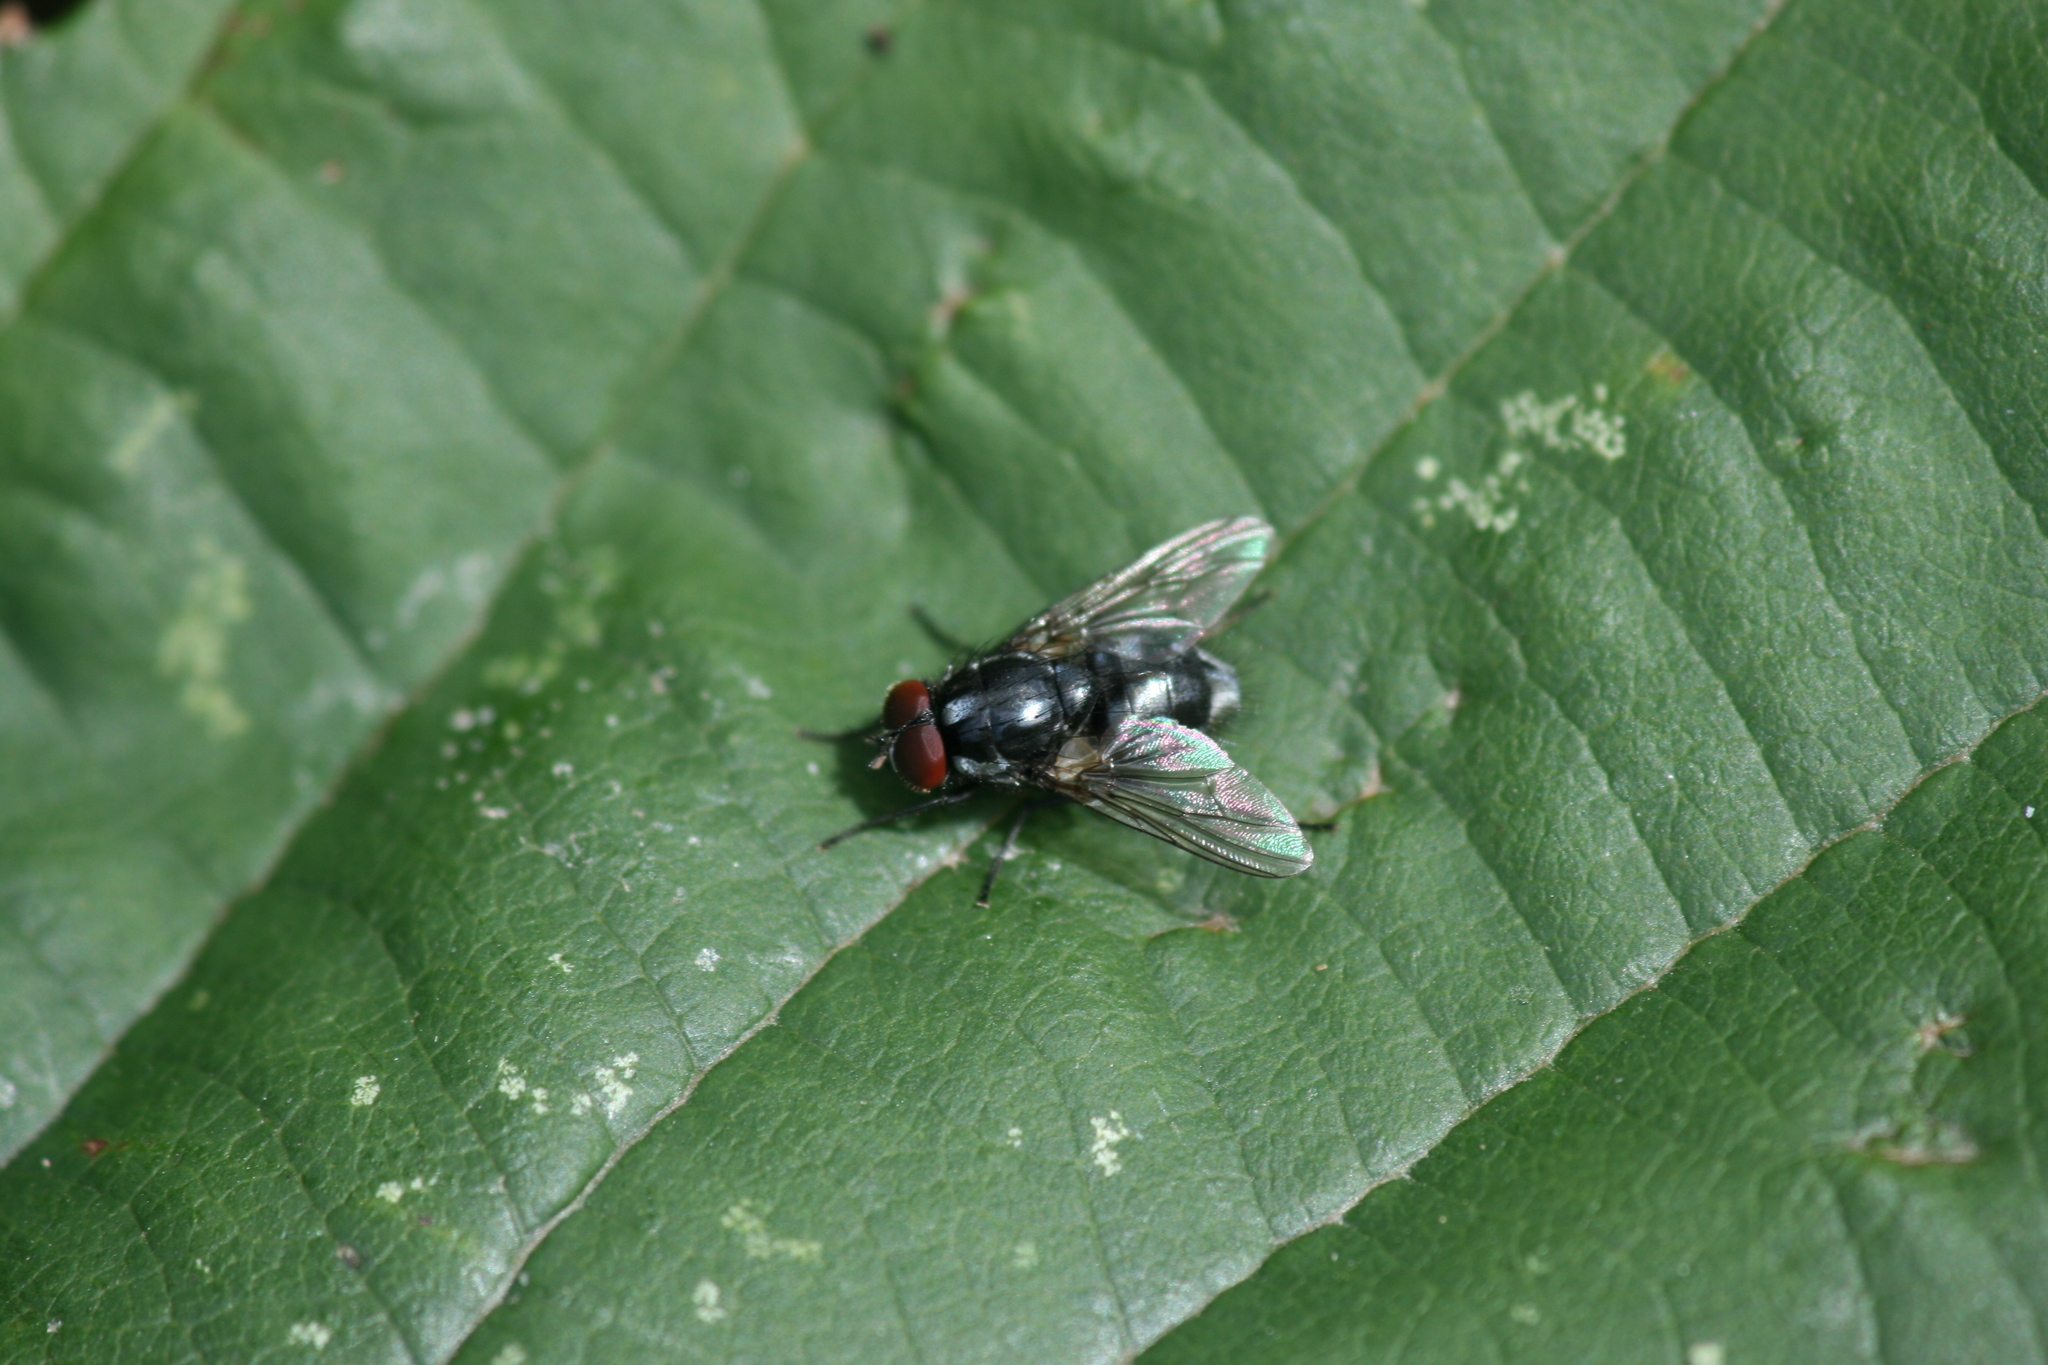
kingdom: Animalia
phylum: Arthropoda
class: Insecta
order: Diptera
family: Muscidae
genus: Polietes
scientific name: Polietes domitor
